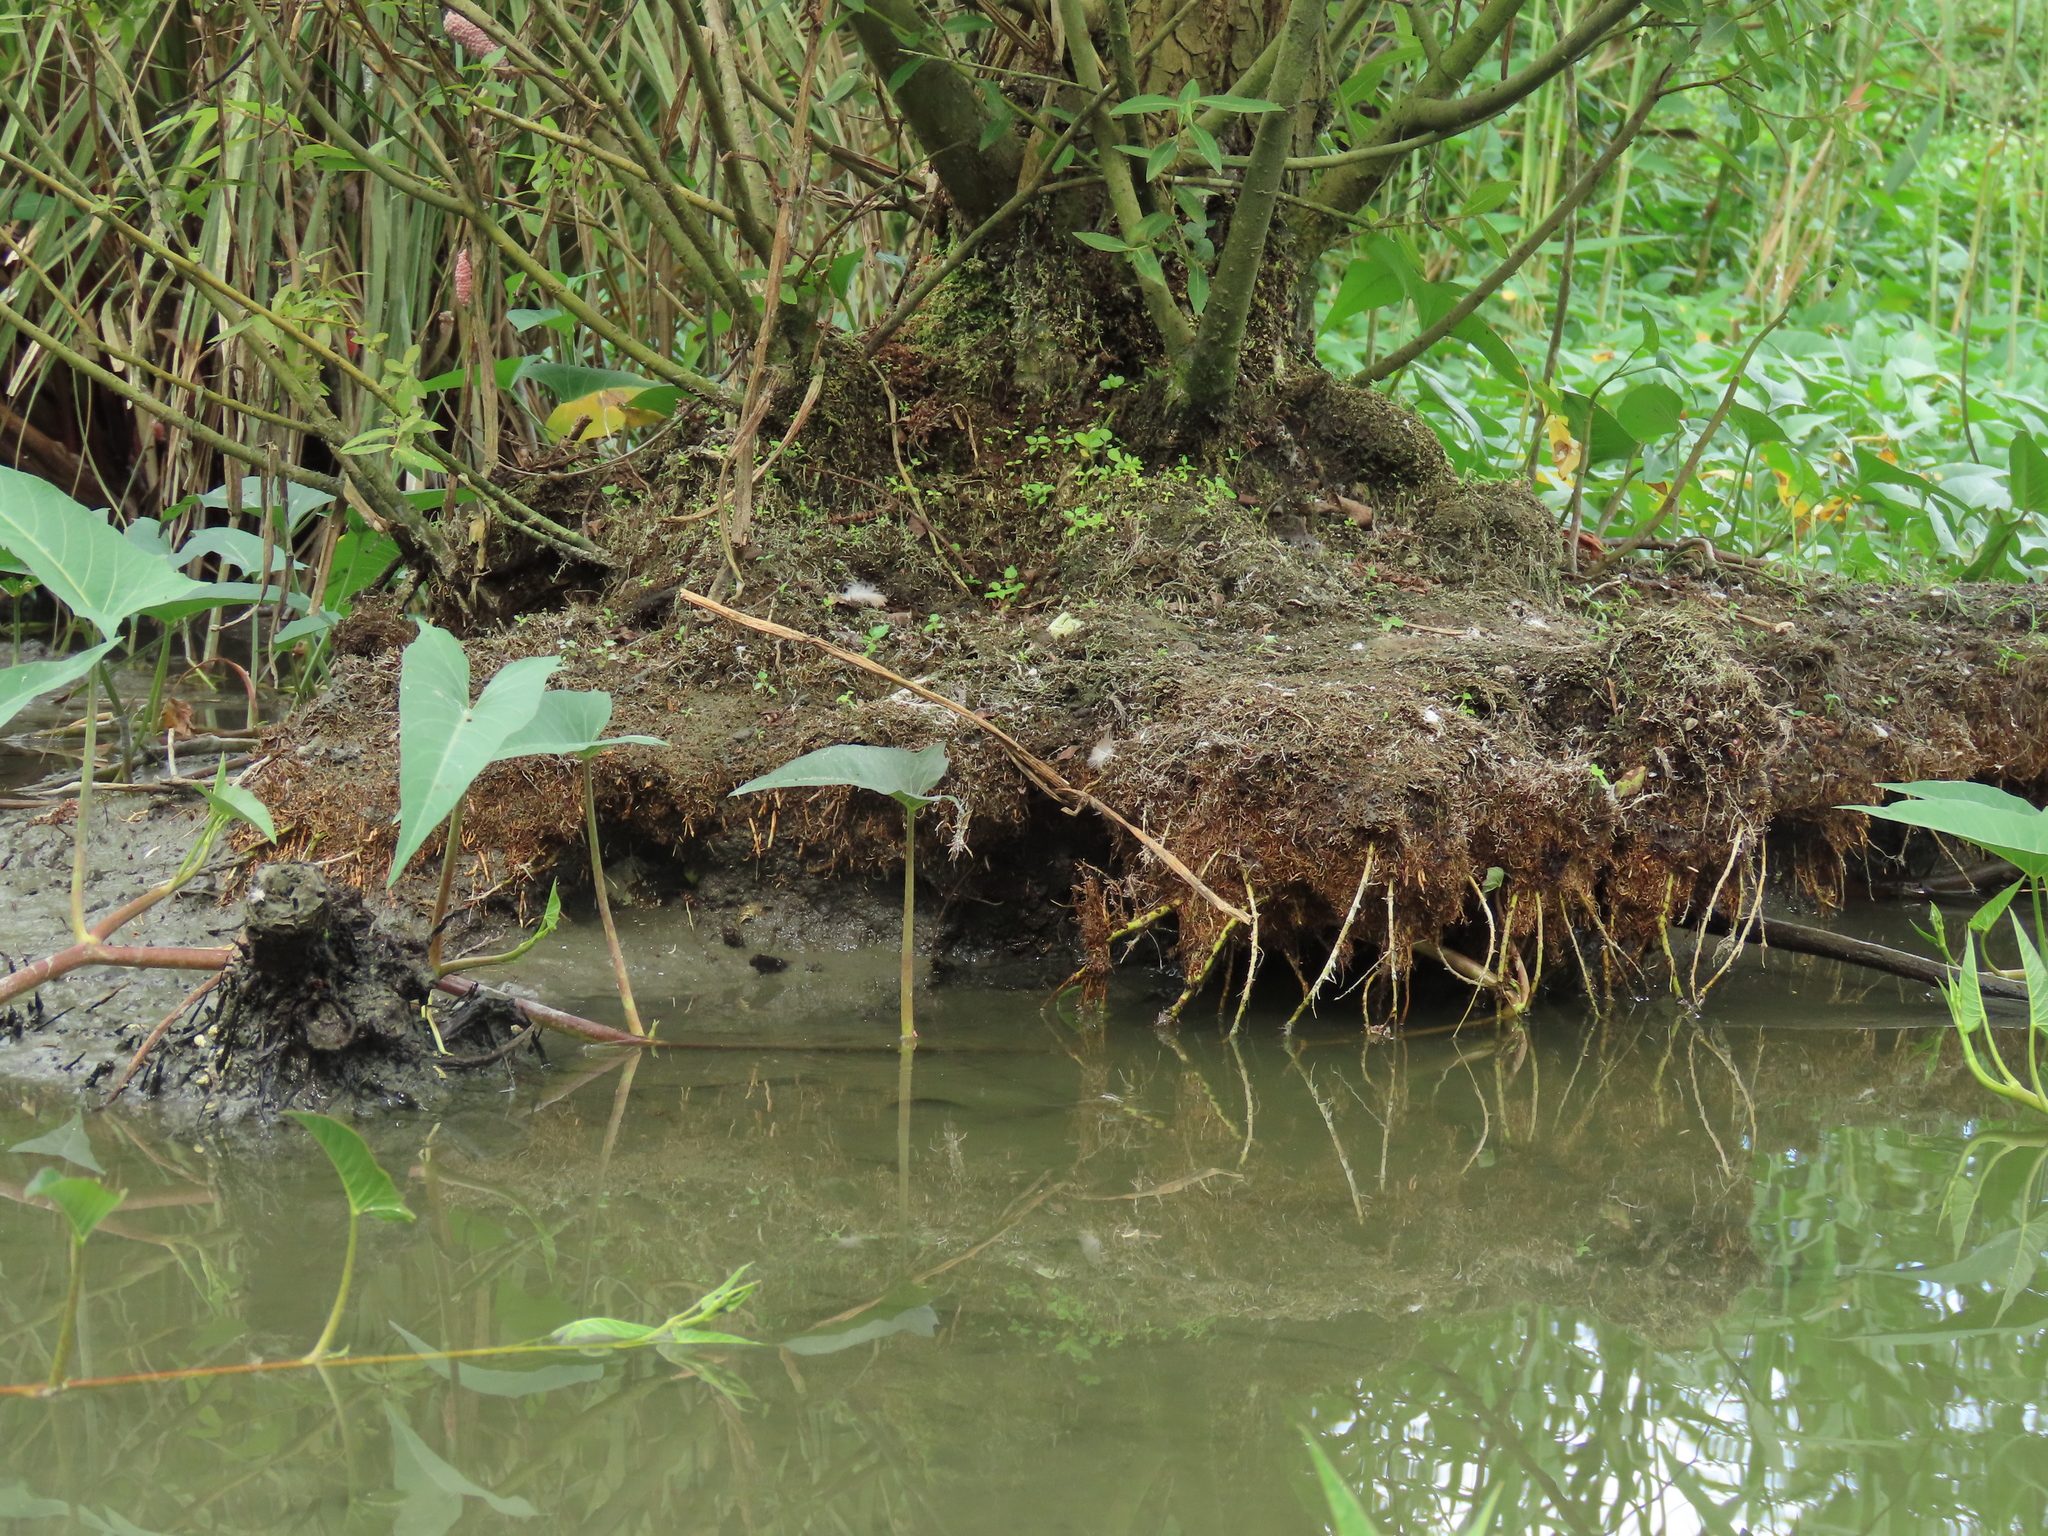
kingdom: Plantae
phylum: Tracheophyta
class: Magnoliopsida
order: Malpighiales
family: Salicaceae
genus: Salix
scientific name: Salix mesnyi
